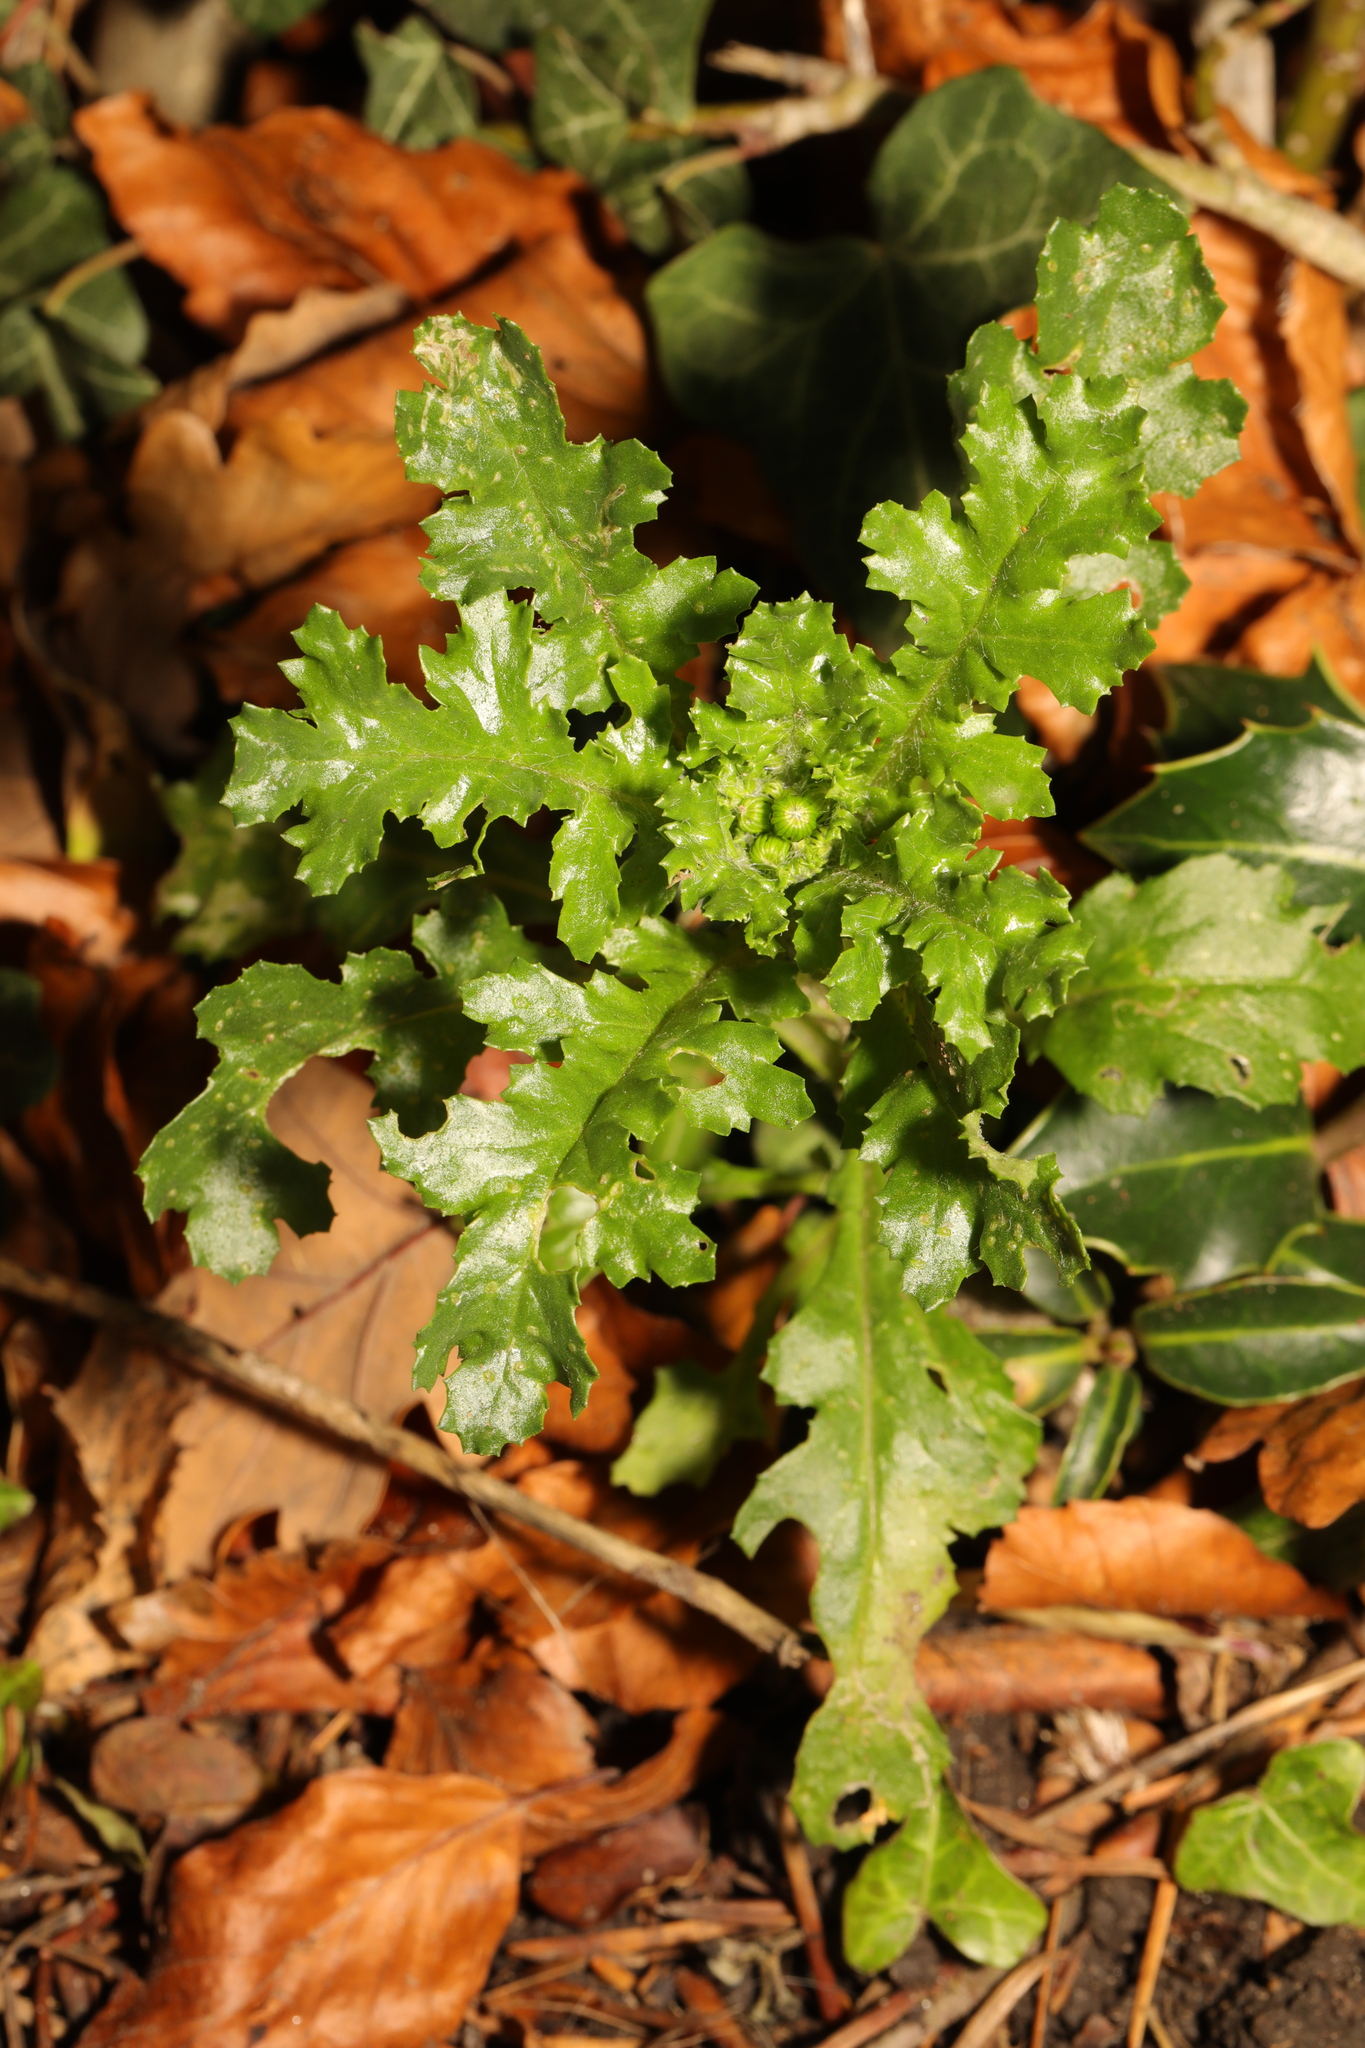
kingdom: Plantae
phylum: Tracheophyta
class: Magnoliopsida
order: Asterales
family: Asteraceae
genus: Senecio
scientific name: Senecio vulgaris
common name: Old-man-in-the-spring
